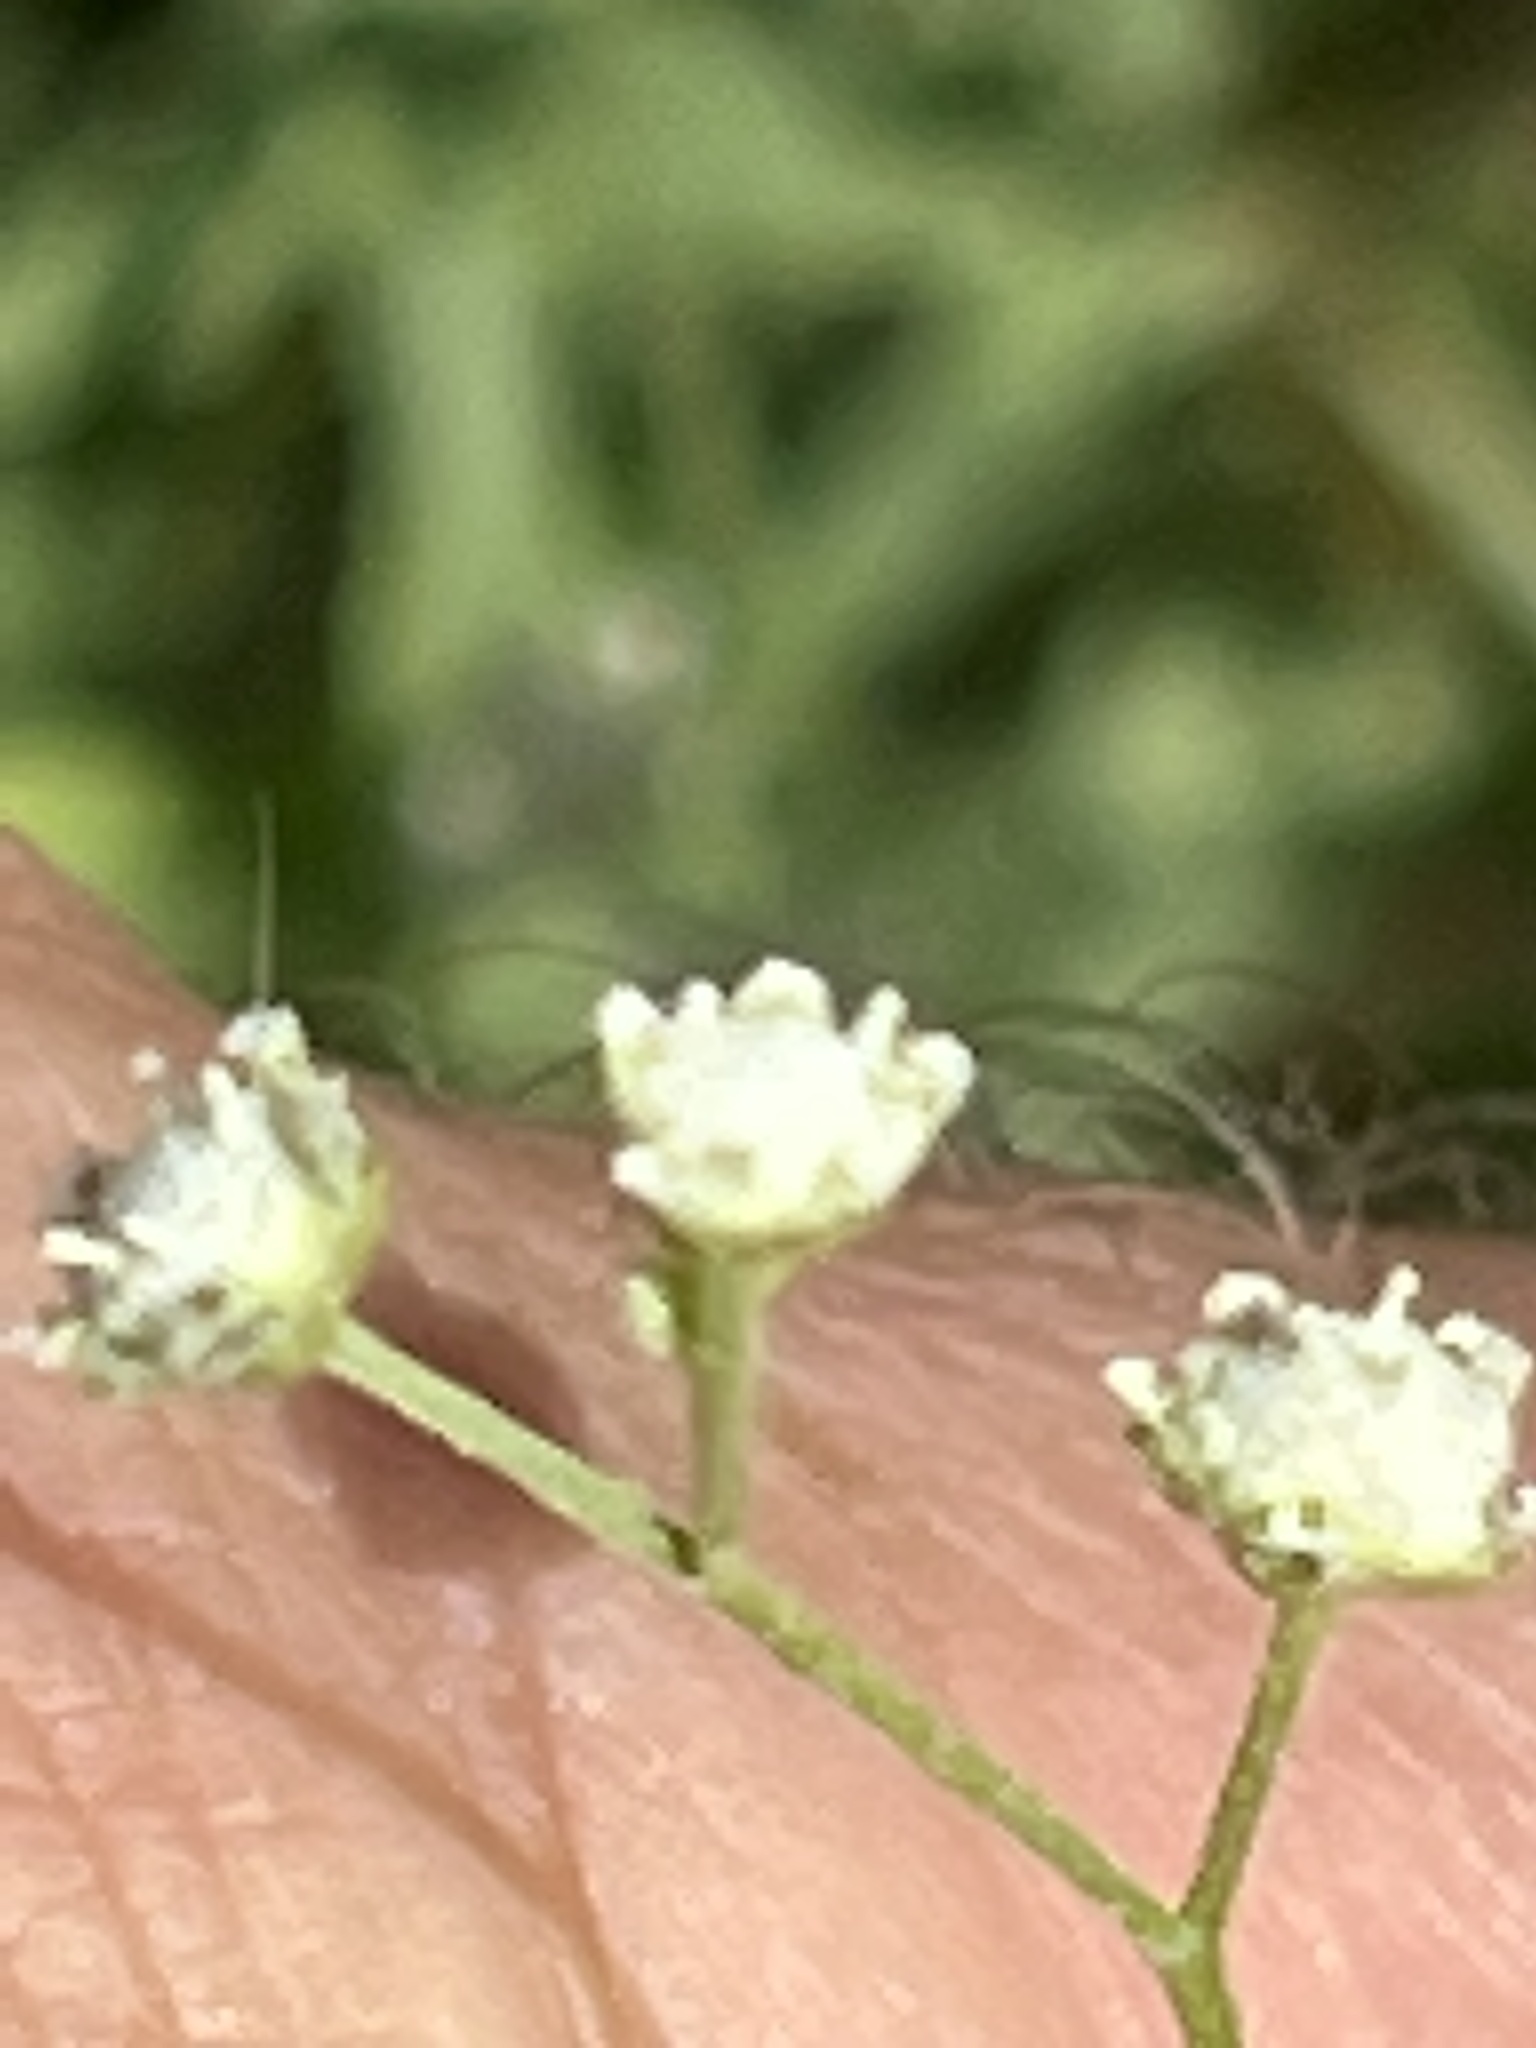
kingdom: Plantae
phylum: Tracheophyta
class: Magnoliopsida
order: Asterales
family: Asteraceae
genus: Parthenium
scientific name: Parthenium hysterophorus
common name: Santa maria feverfew
